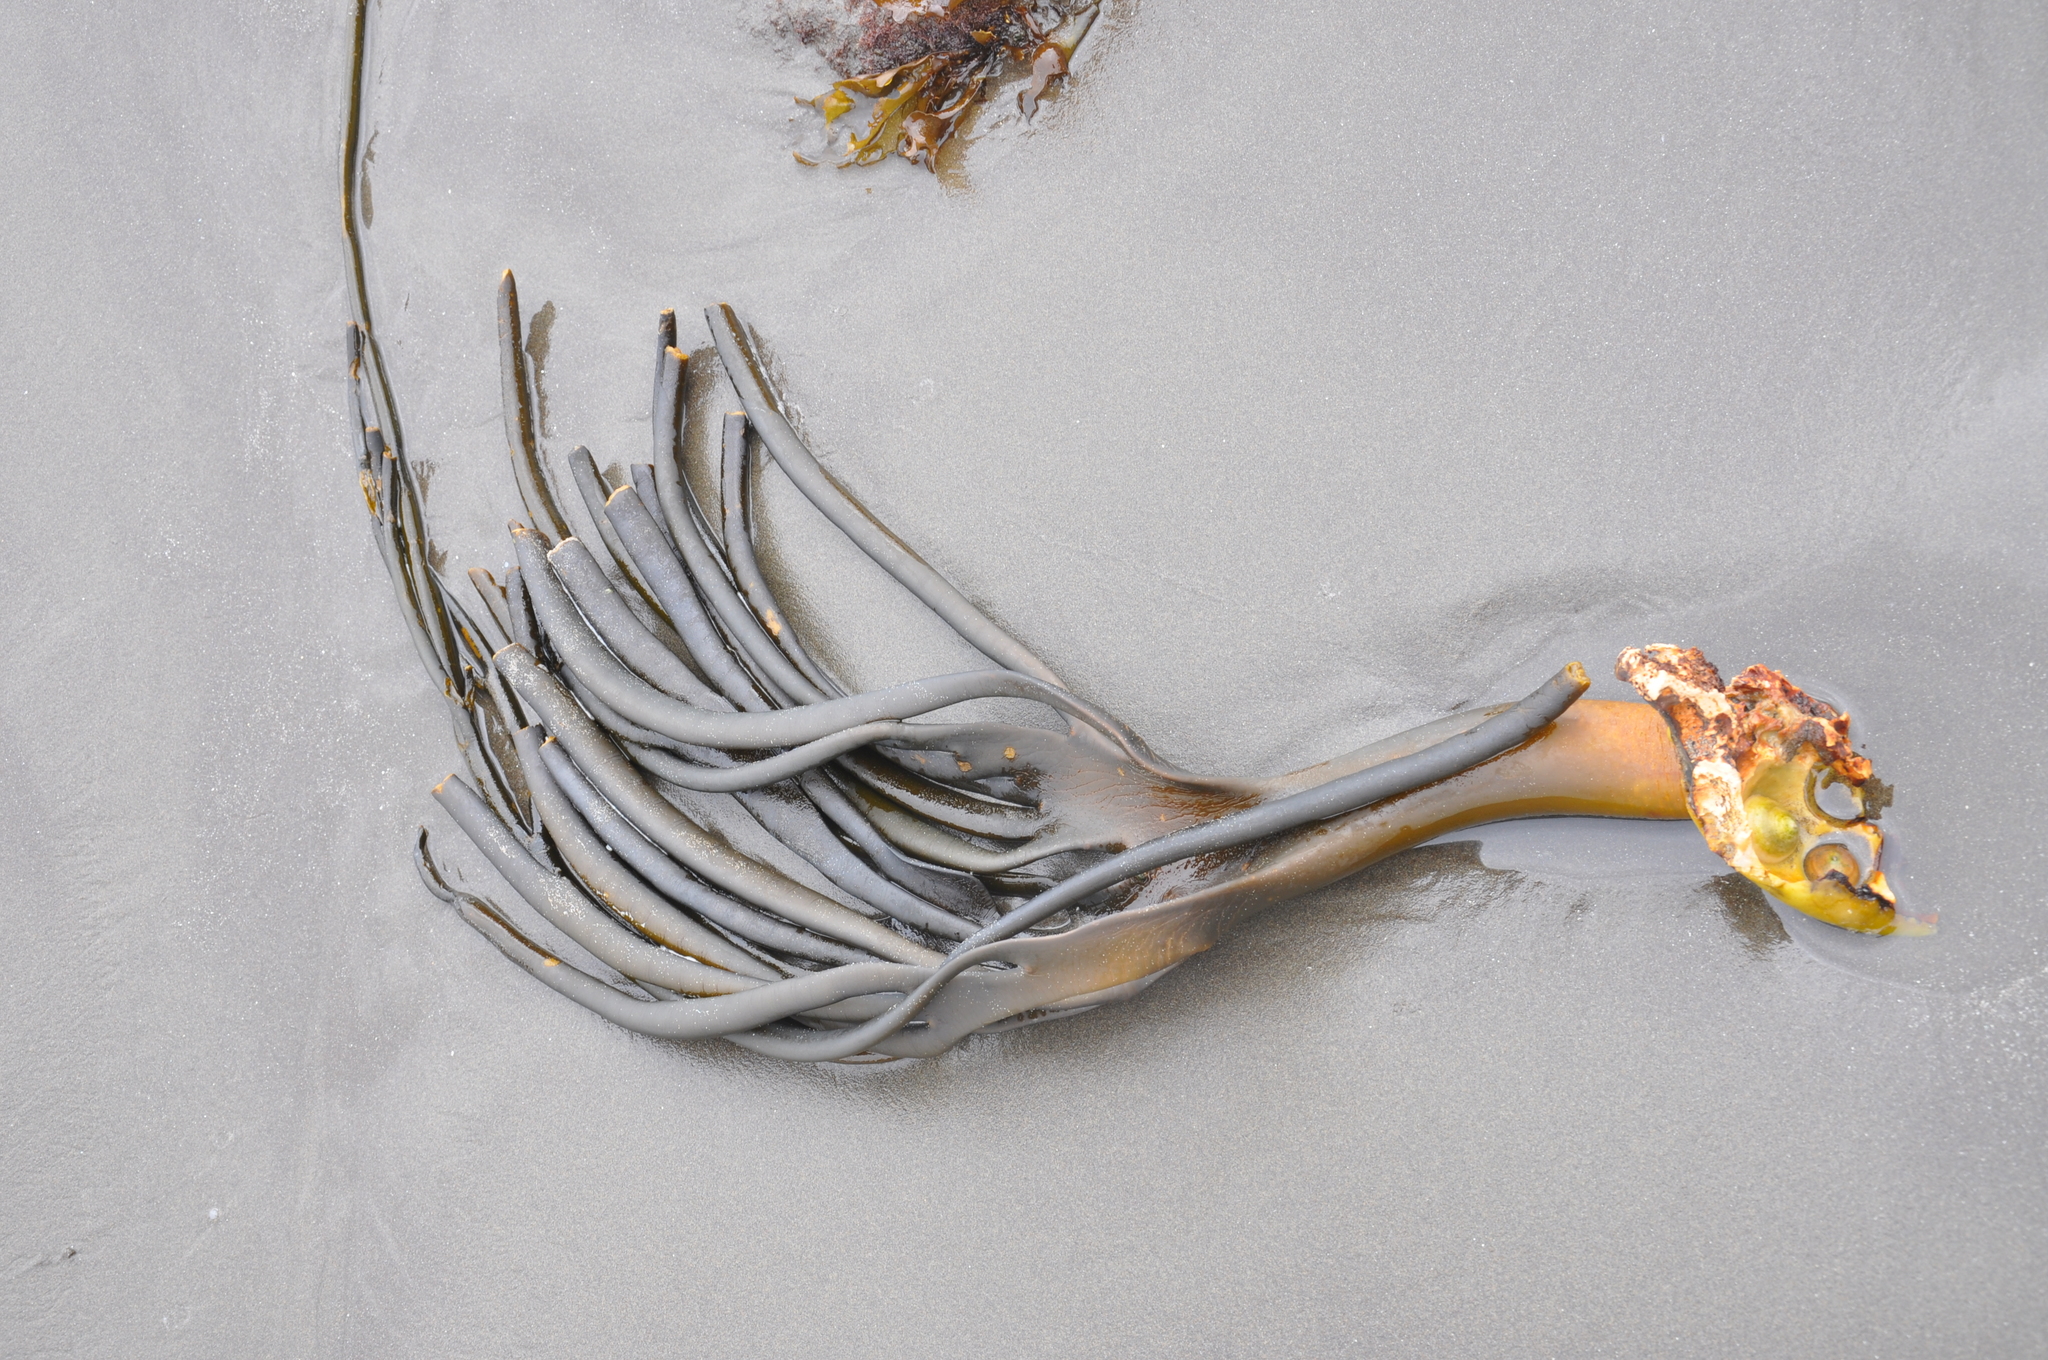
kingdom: Chromista
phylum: Ochrophyta
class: Phaeophyceae
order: Fucales
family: Durvillaeaceae
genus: Durvillaea
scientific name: Durvillaea
